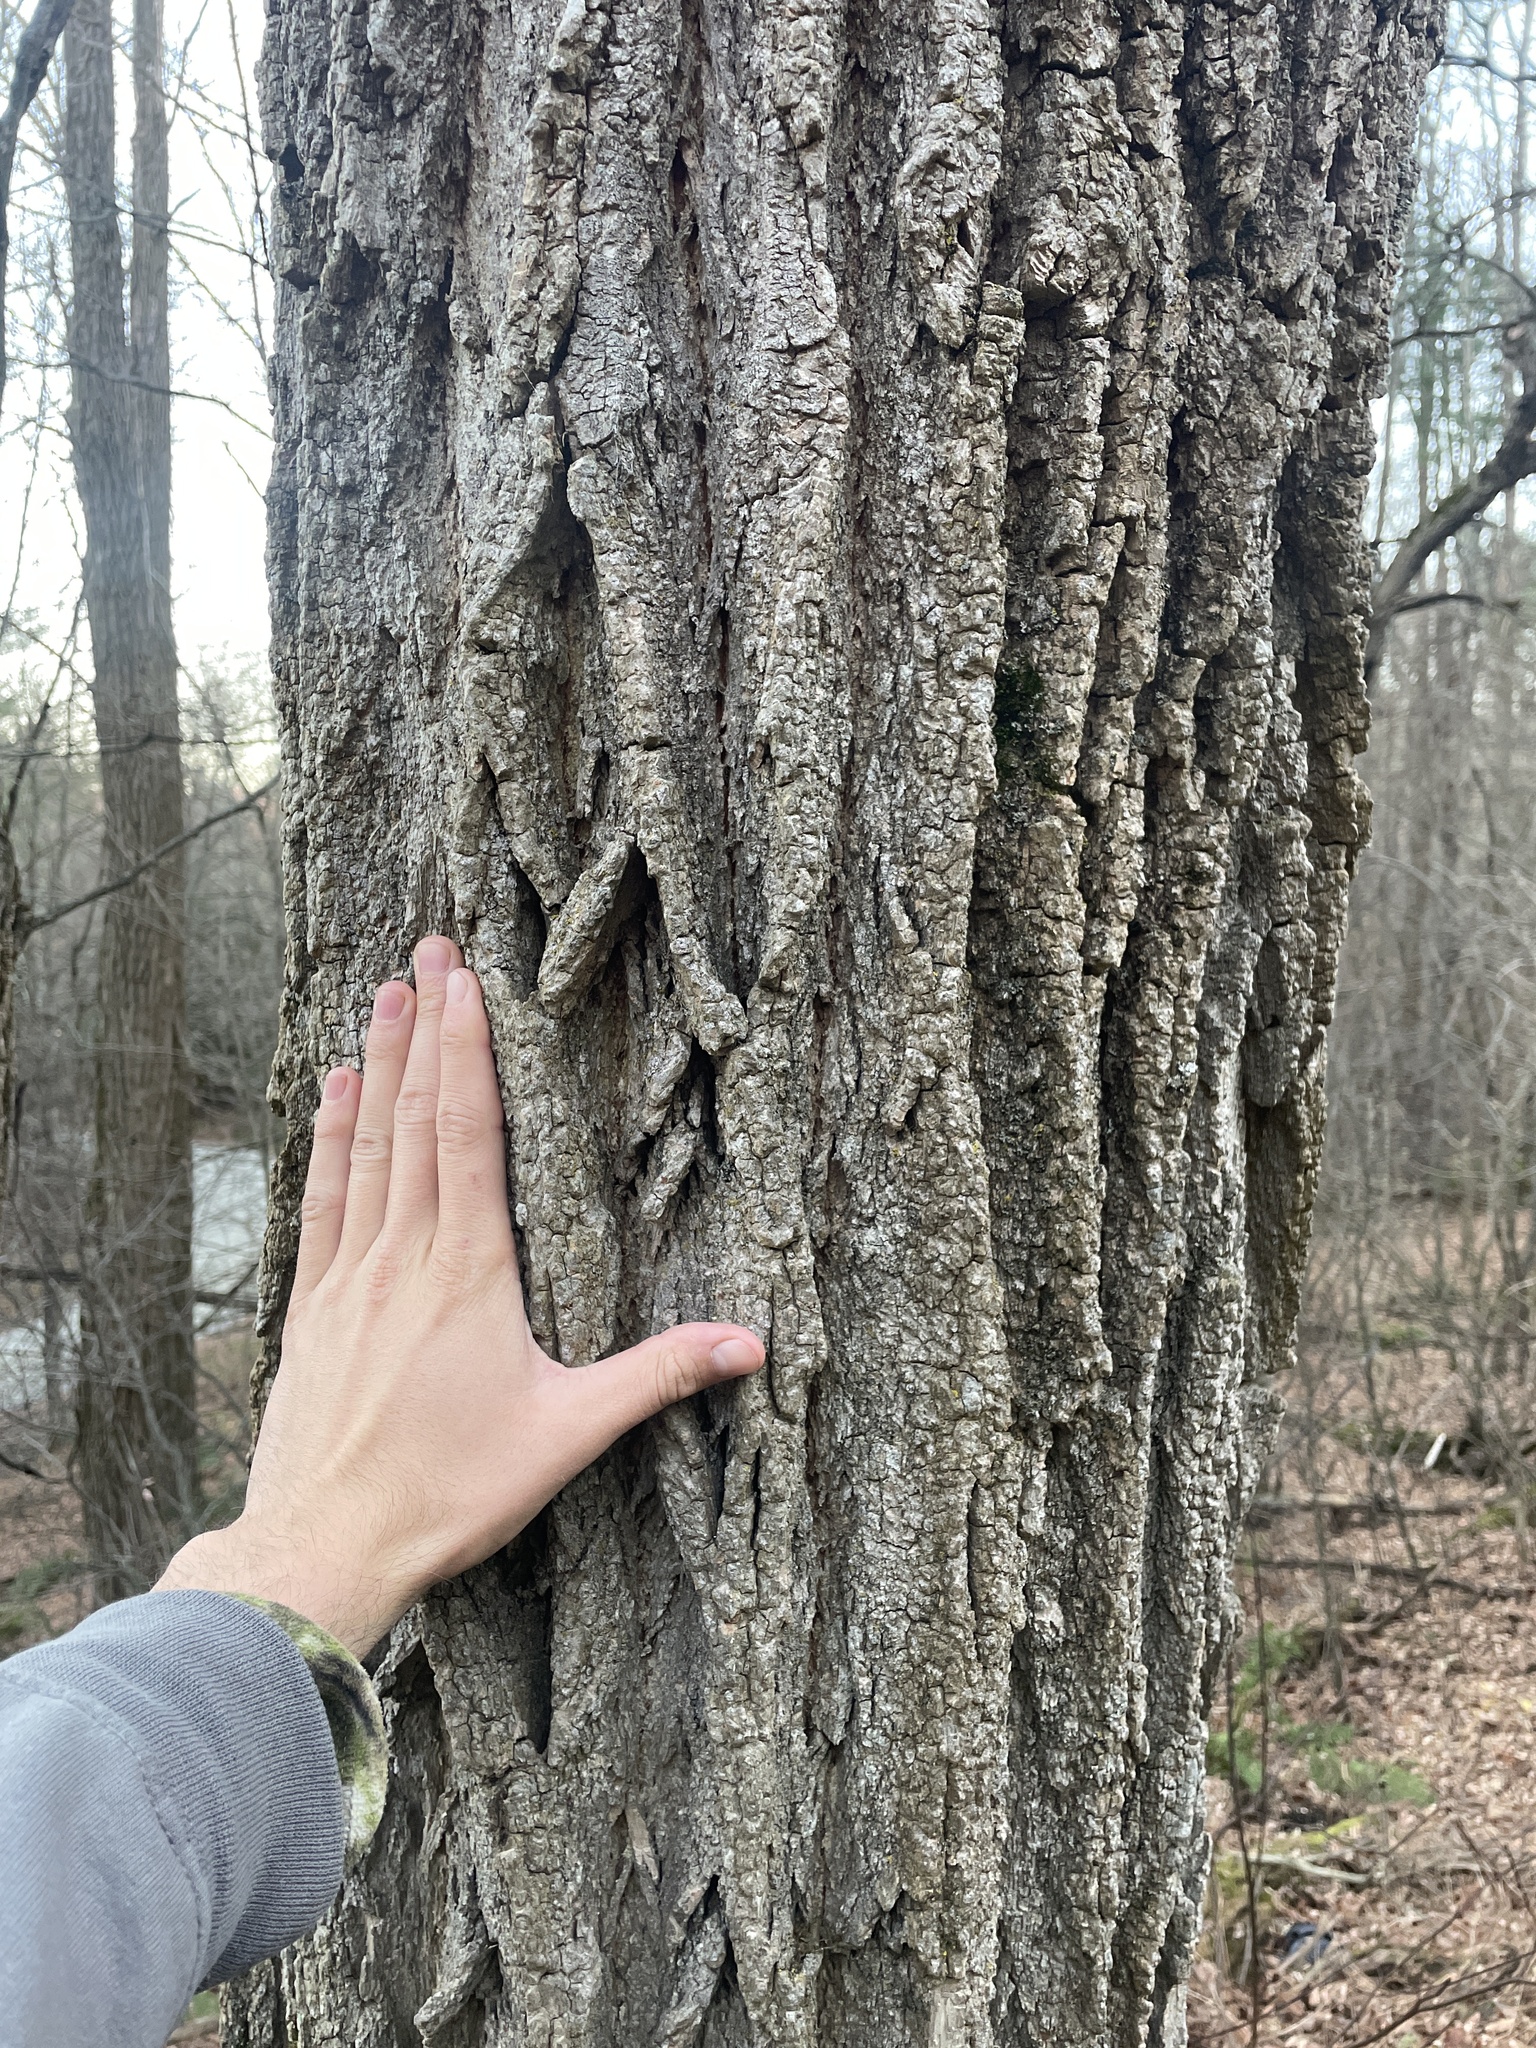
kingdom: Plantae
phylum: Tracheophyta
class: Magnoliopsida
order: Fabales
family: Fabaceae
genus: Robinia
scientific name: Robinia pseudoacacia
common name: Black locust
